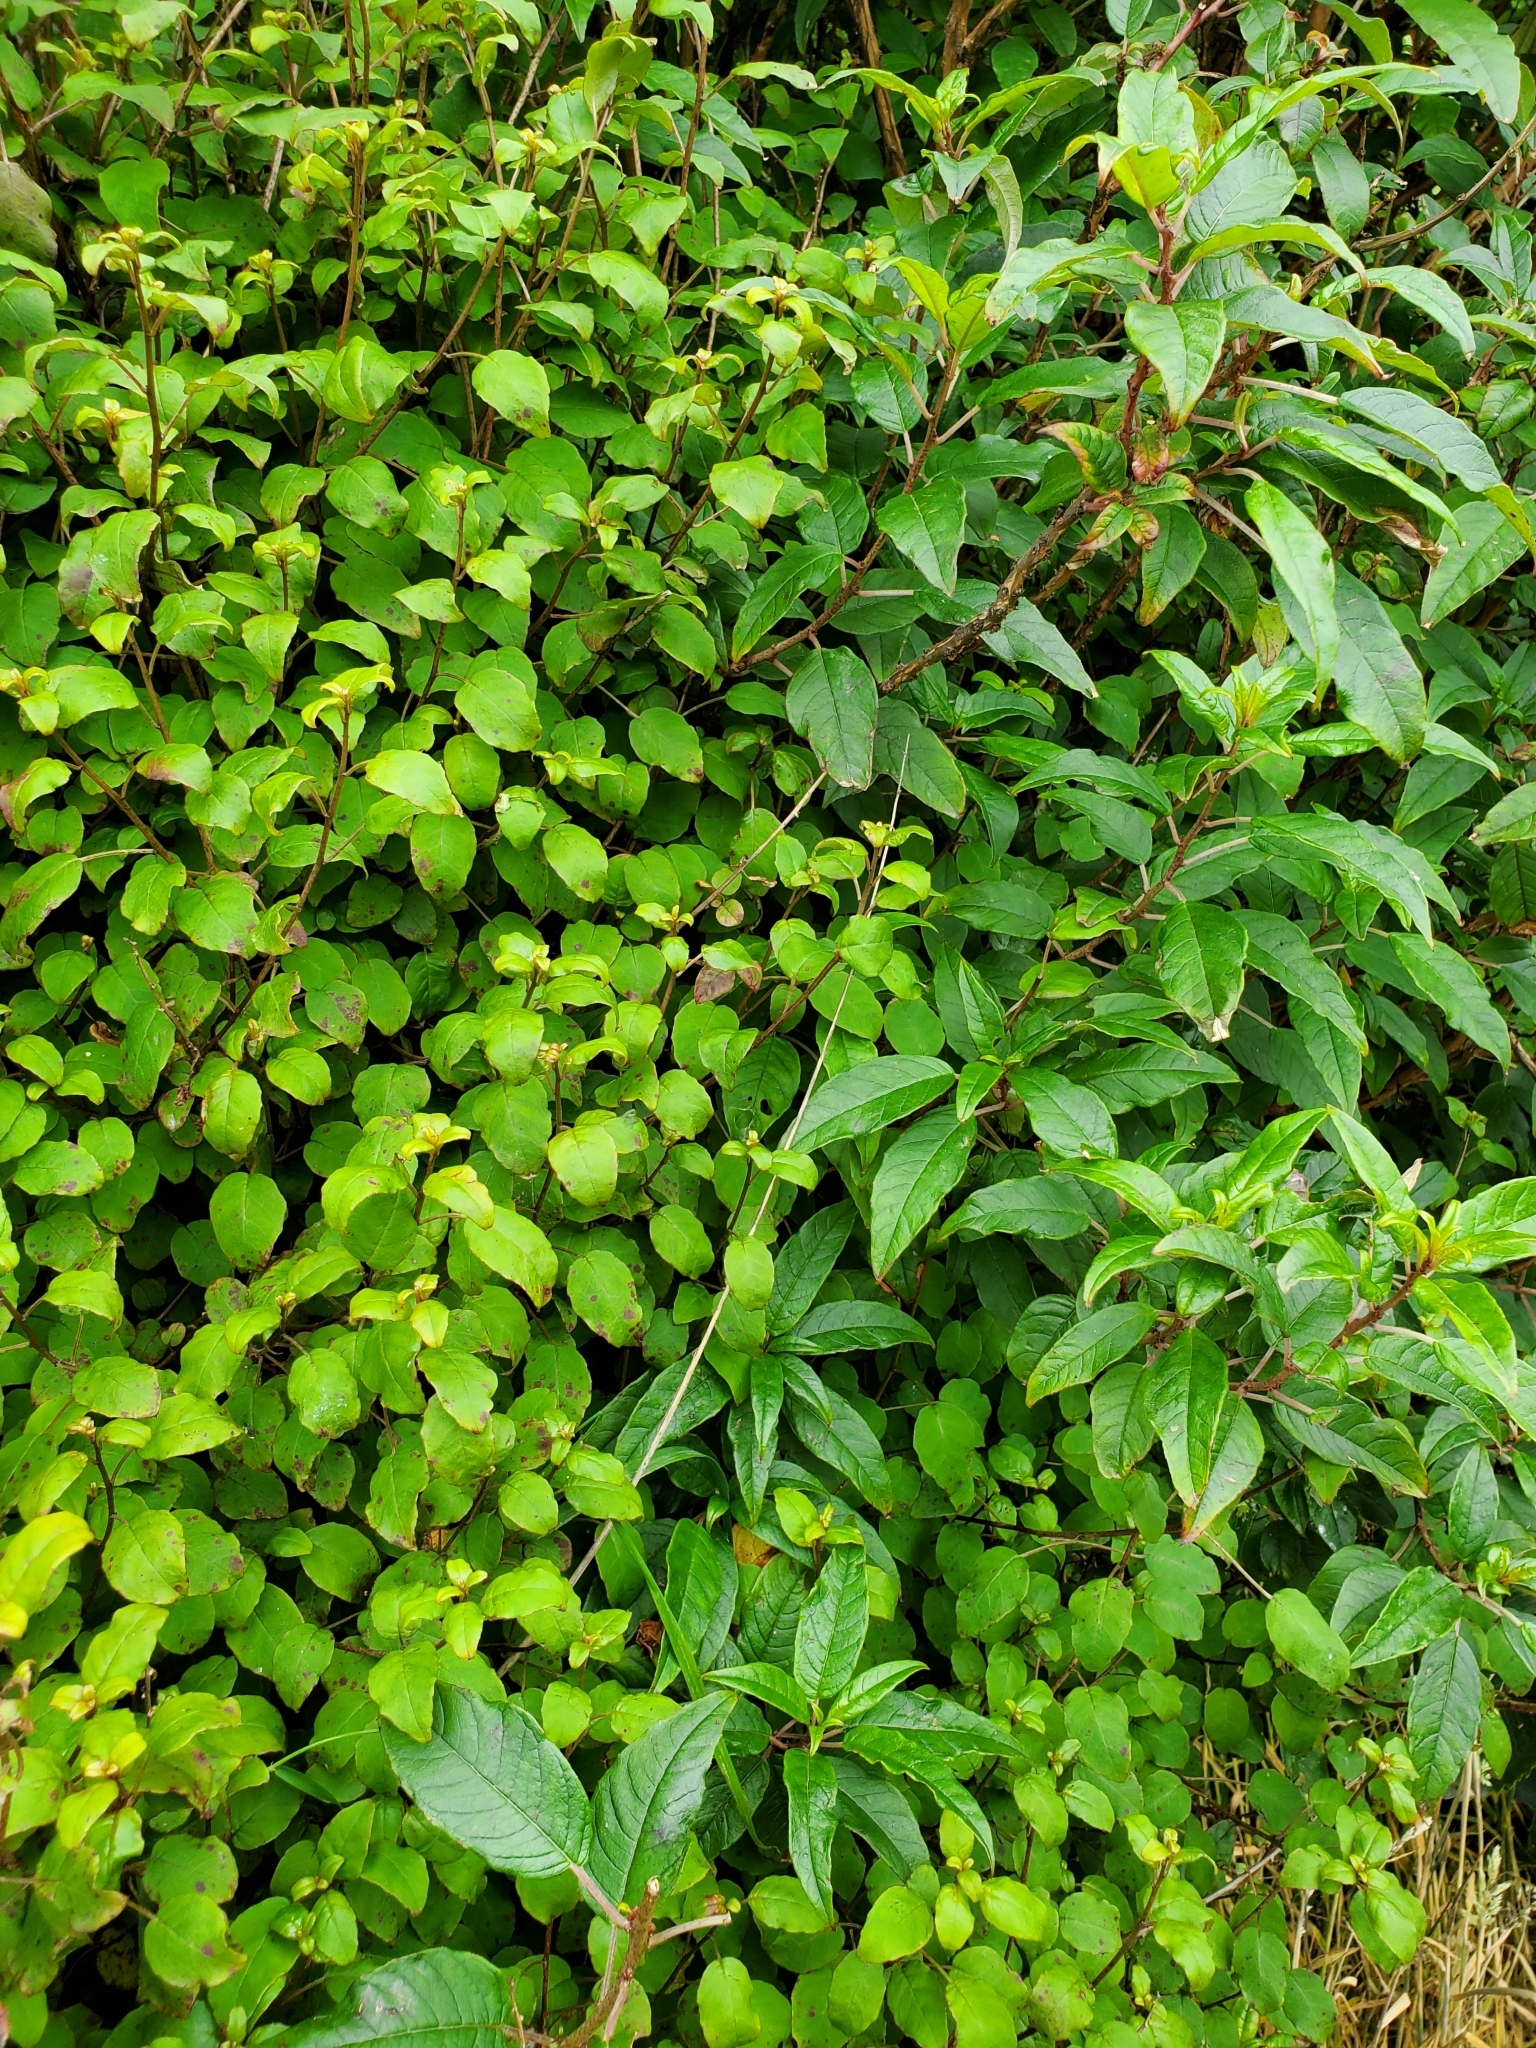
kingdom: Plantae
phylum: Tracheophyta
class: Magnoliopsida
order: Myrtales
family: Onagraceae
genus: Fuchsia
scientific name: Fuchsia perscandens
